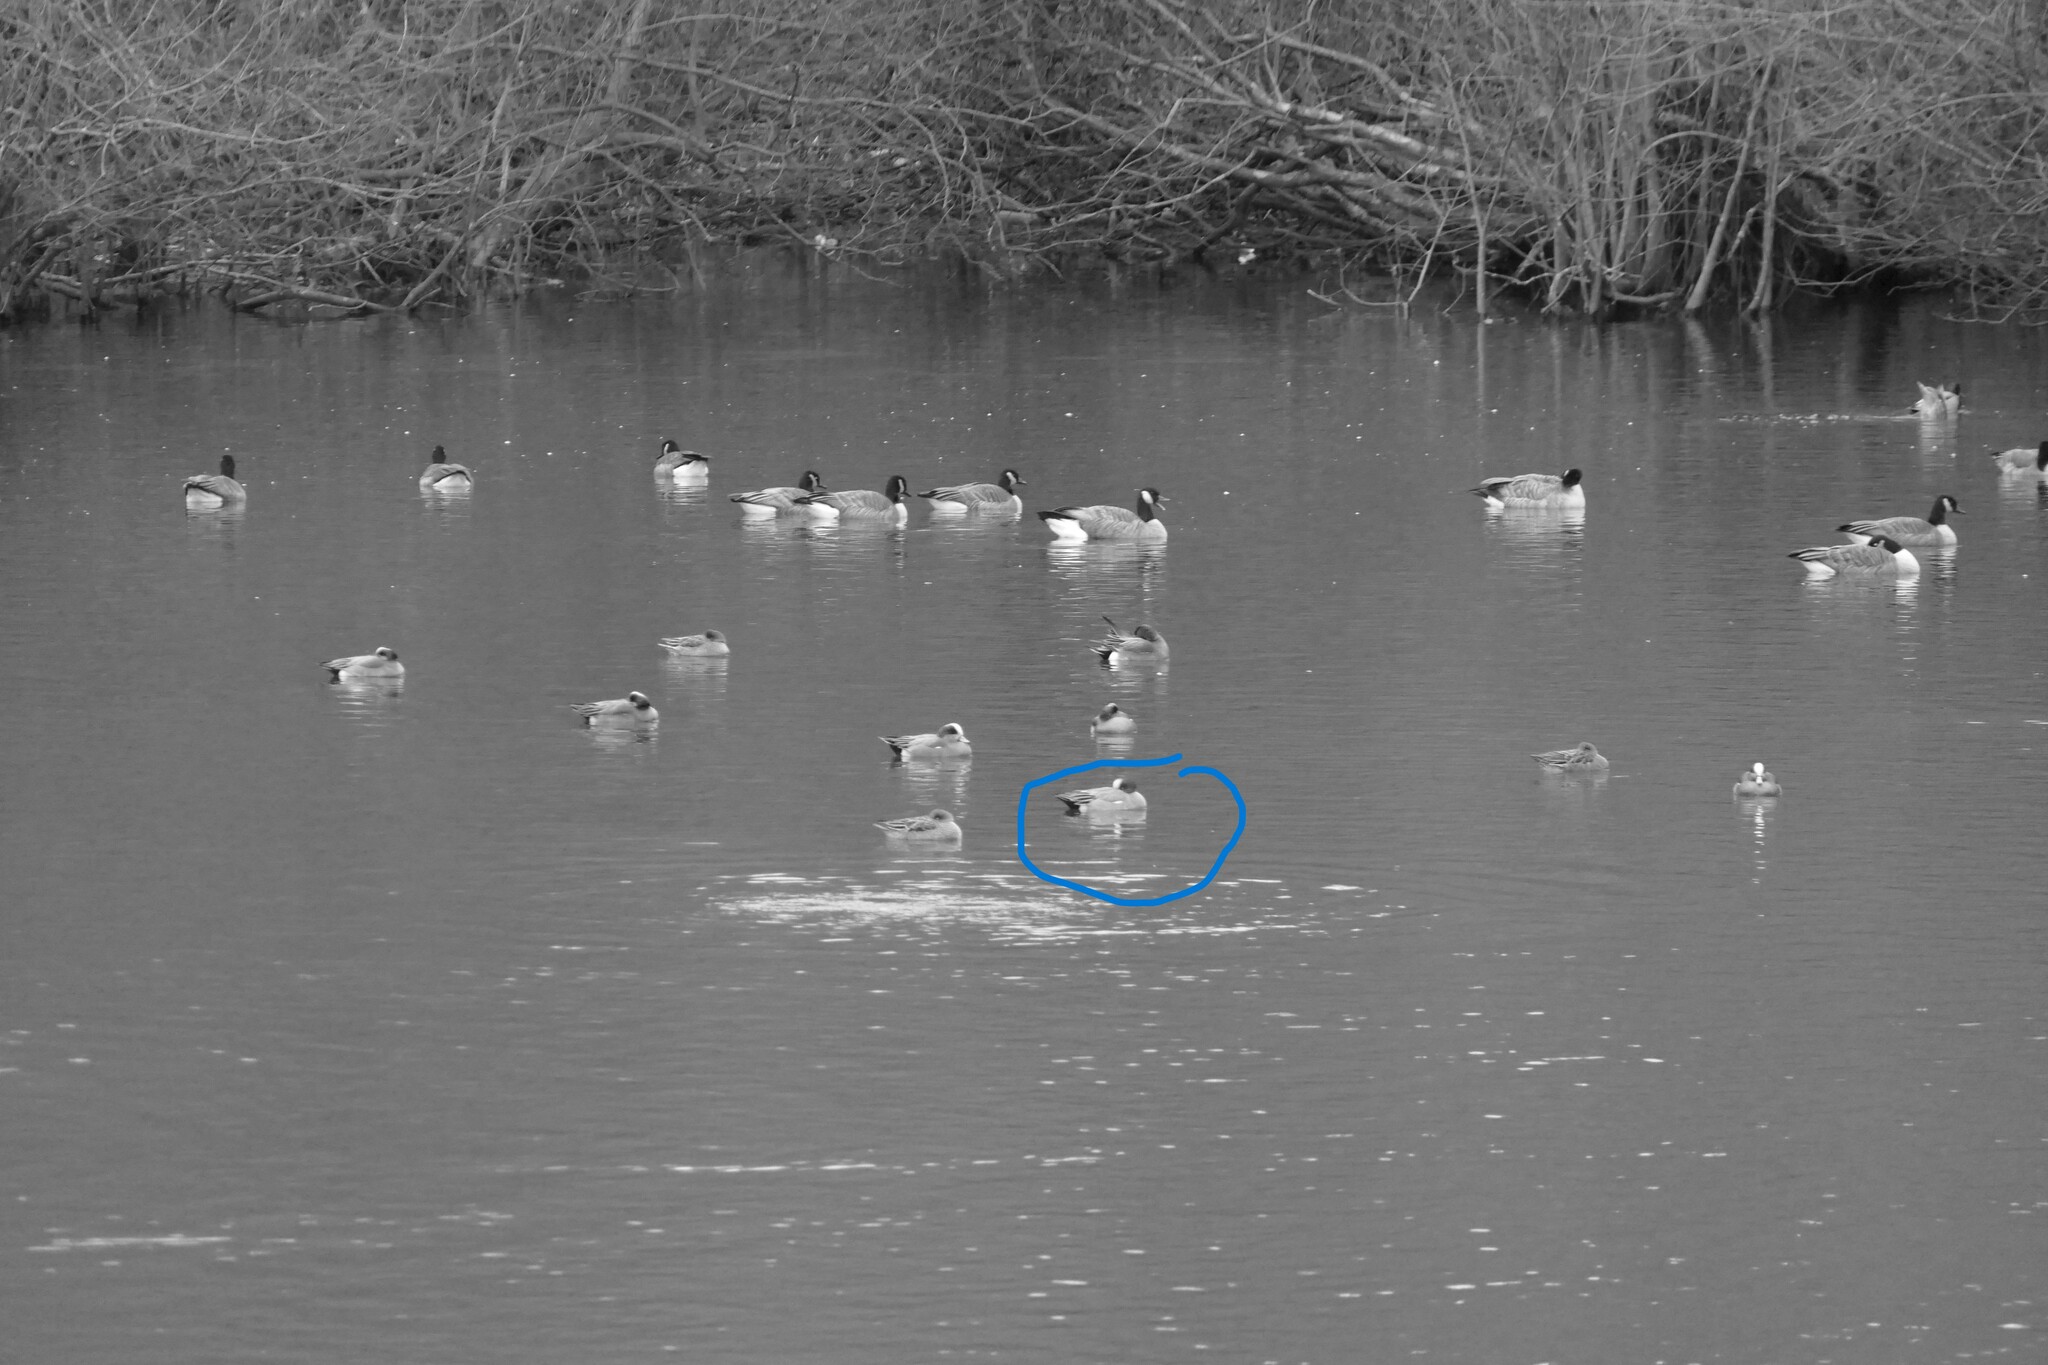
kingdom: Animalia
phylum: Chordata
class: Aves
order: Anseriformes
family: Anatidae
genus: Mareca
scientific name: Mareca penelope
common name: Eurasian wigeon
